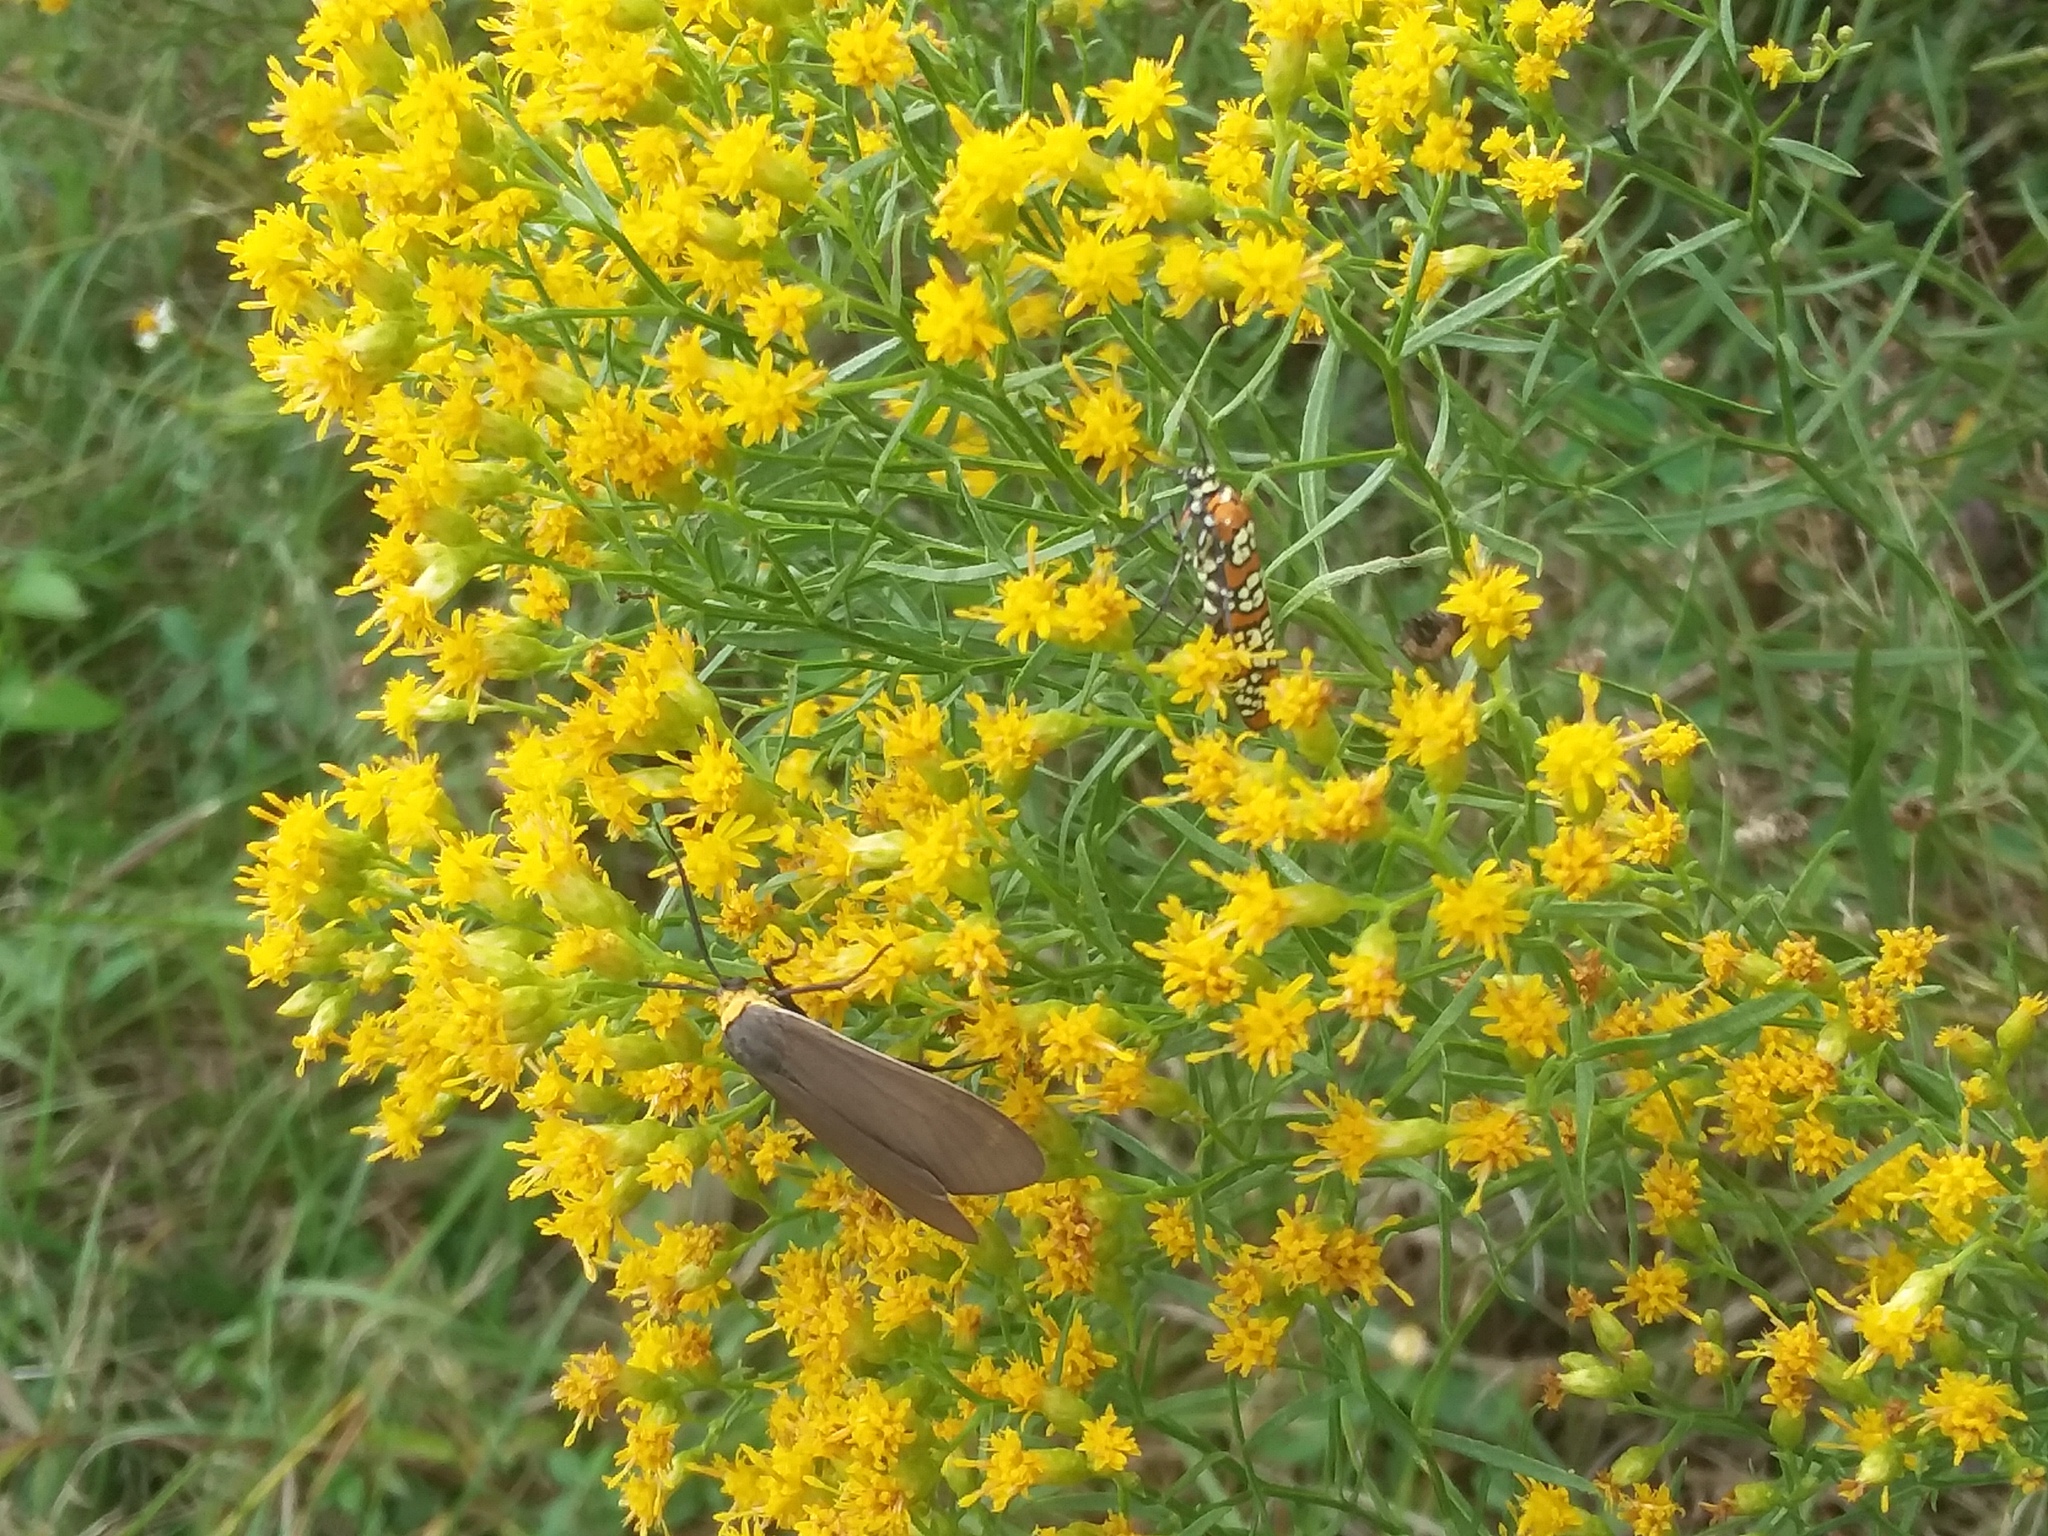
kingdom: Animalia
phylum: Arthropoda
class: Insecta
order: Lepidoptera
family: Attevidae
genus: Atteva
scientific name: Atteva punctella
